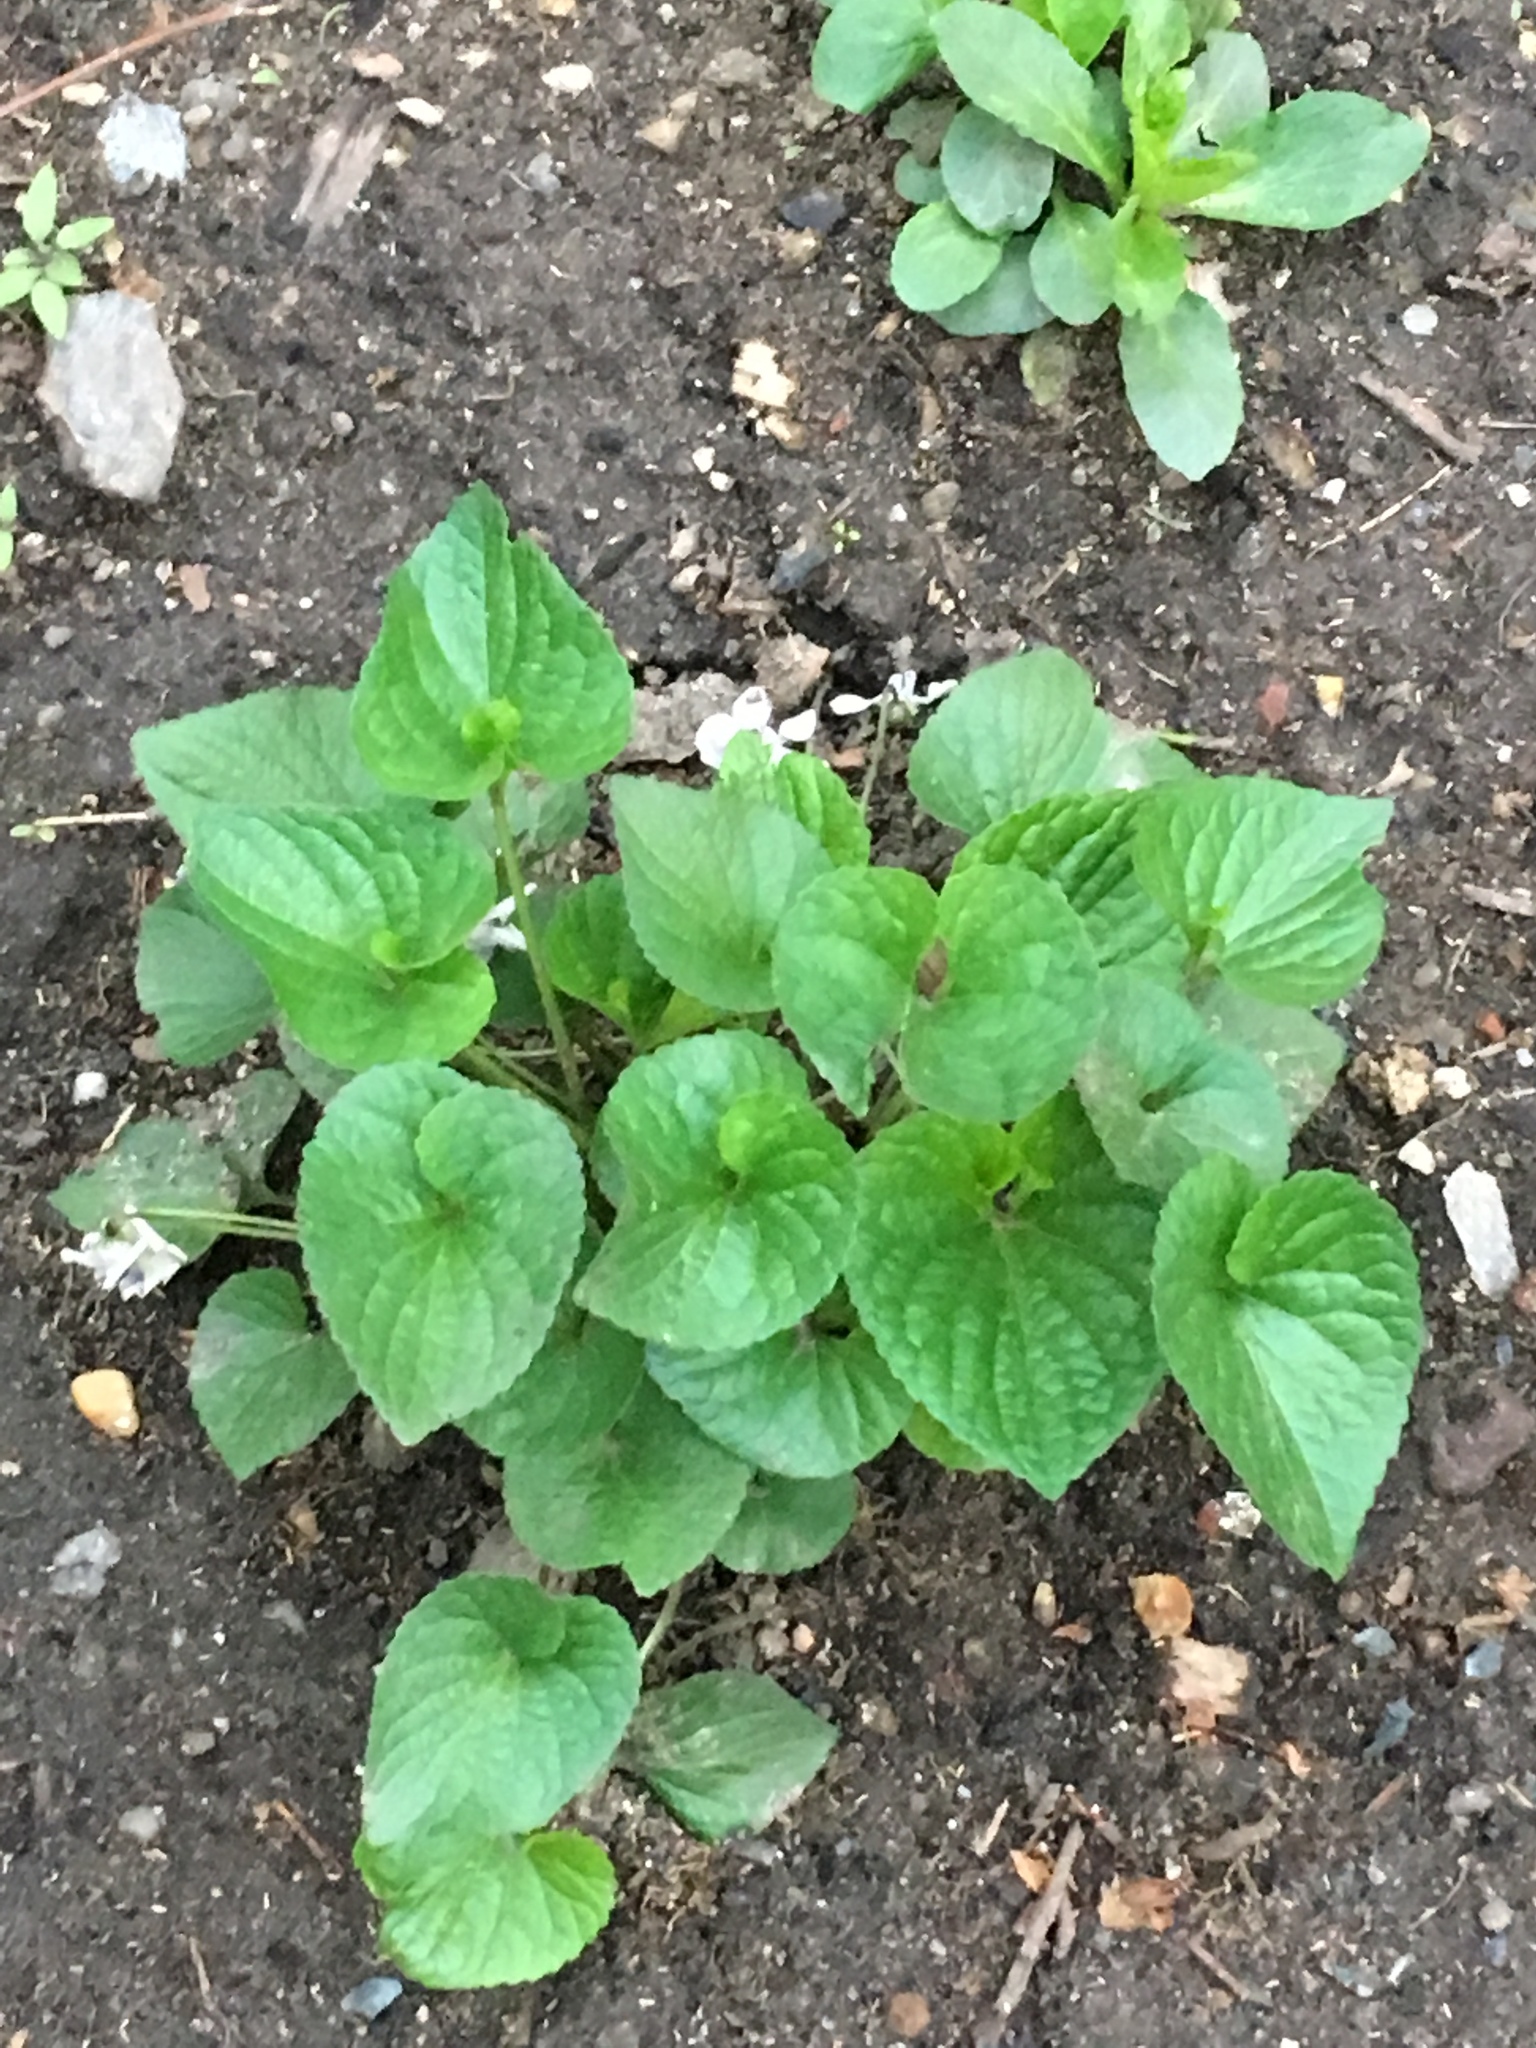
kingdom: Plantae
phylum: Tracheophyta
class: Magnoliopsida
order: Malpighiales
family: Violaceae
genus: Viola
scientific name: Viola sororia
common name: Dooryard violet
